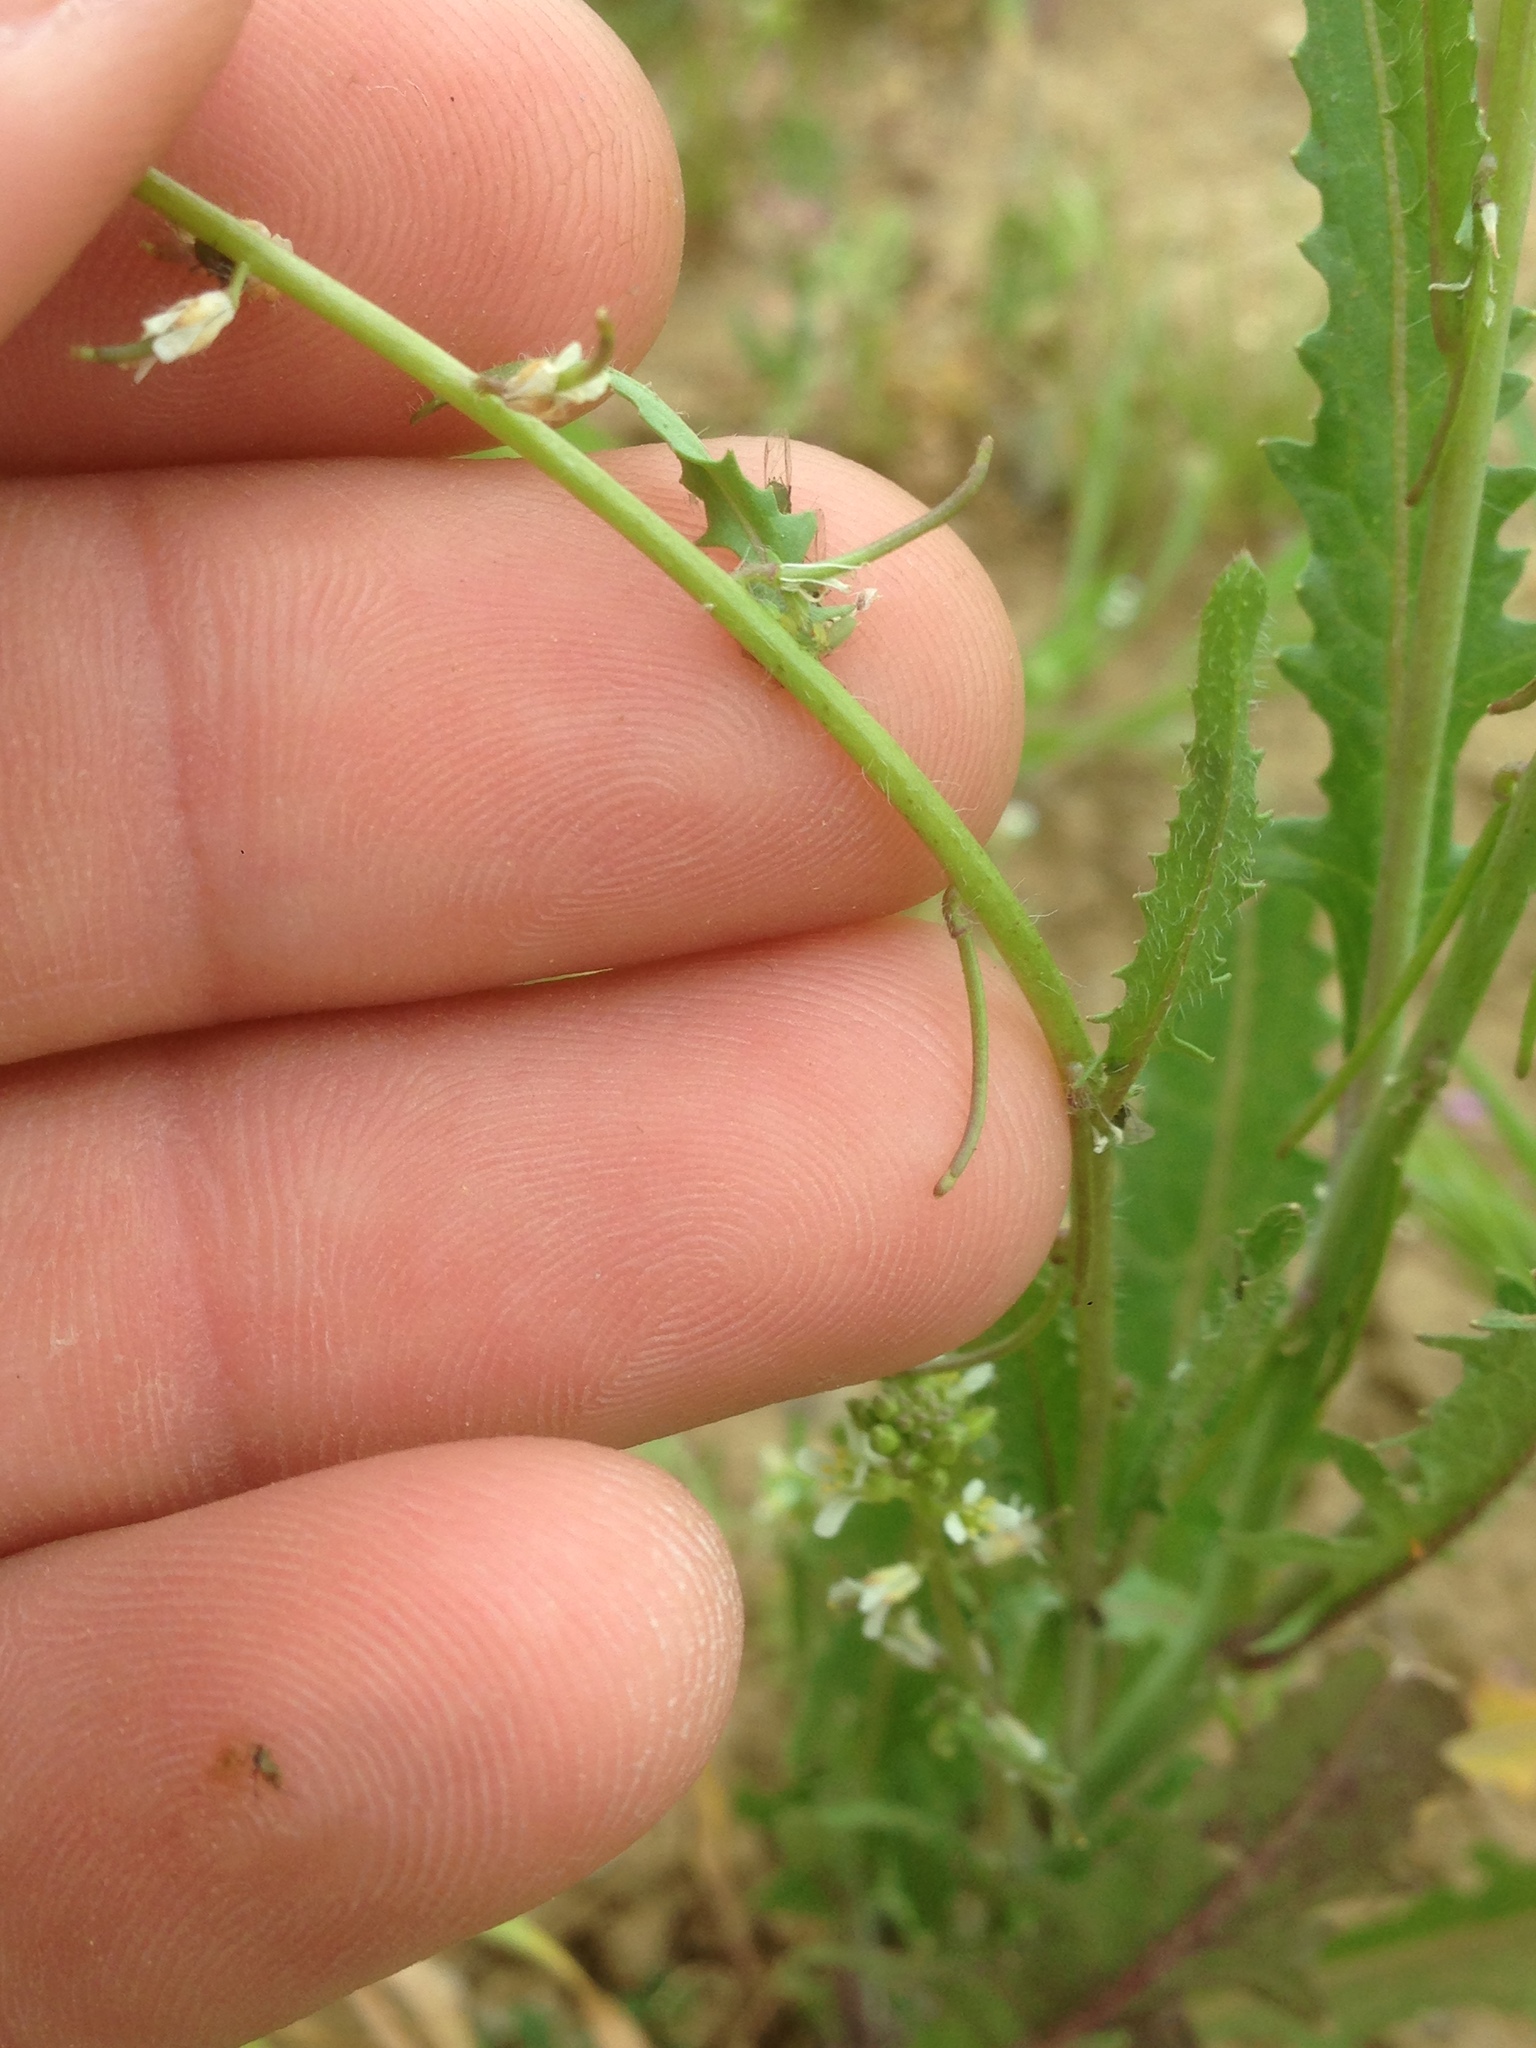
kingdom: Plantae
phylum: Tracheophyta
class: Magnoliopsida
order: Brassicales
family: Brassicaceae
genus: Streptanthus
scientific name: Streptanthus lasiophyllus
